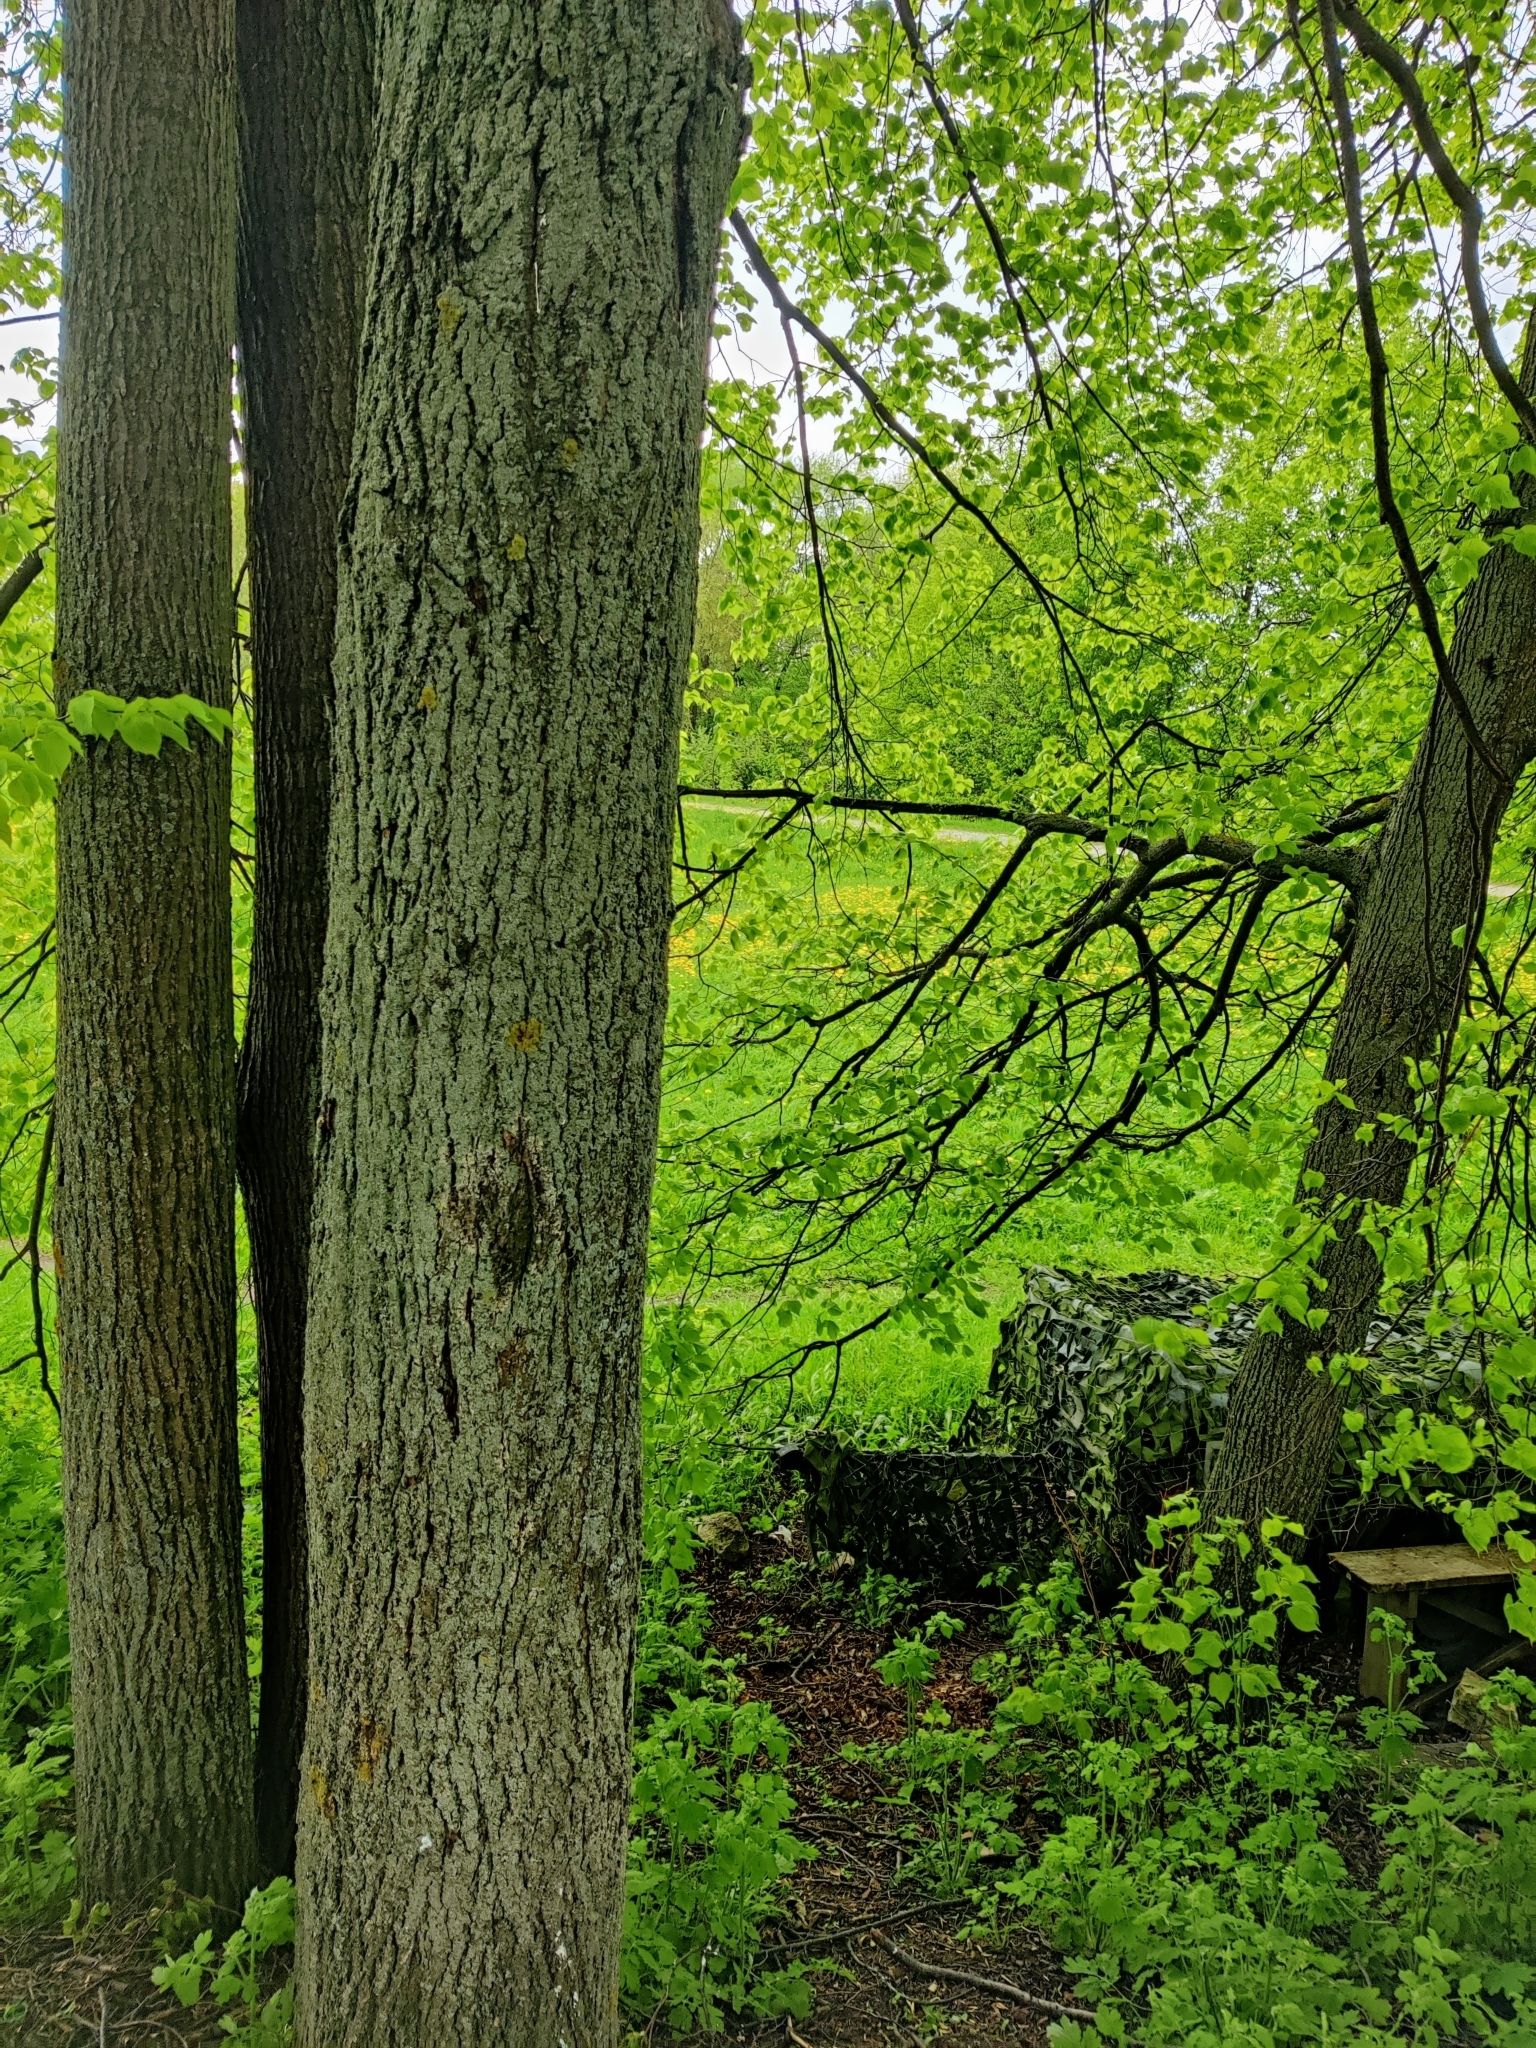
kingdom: Plantae
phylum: Tracheophyta
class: Magnoliopsida
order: Malvales
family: Malvaceae
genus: Tilia
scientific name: Tilia cordata
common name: Small-leaved lime
